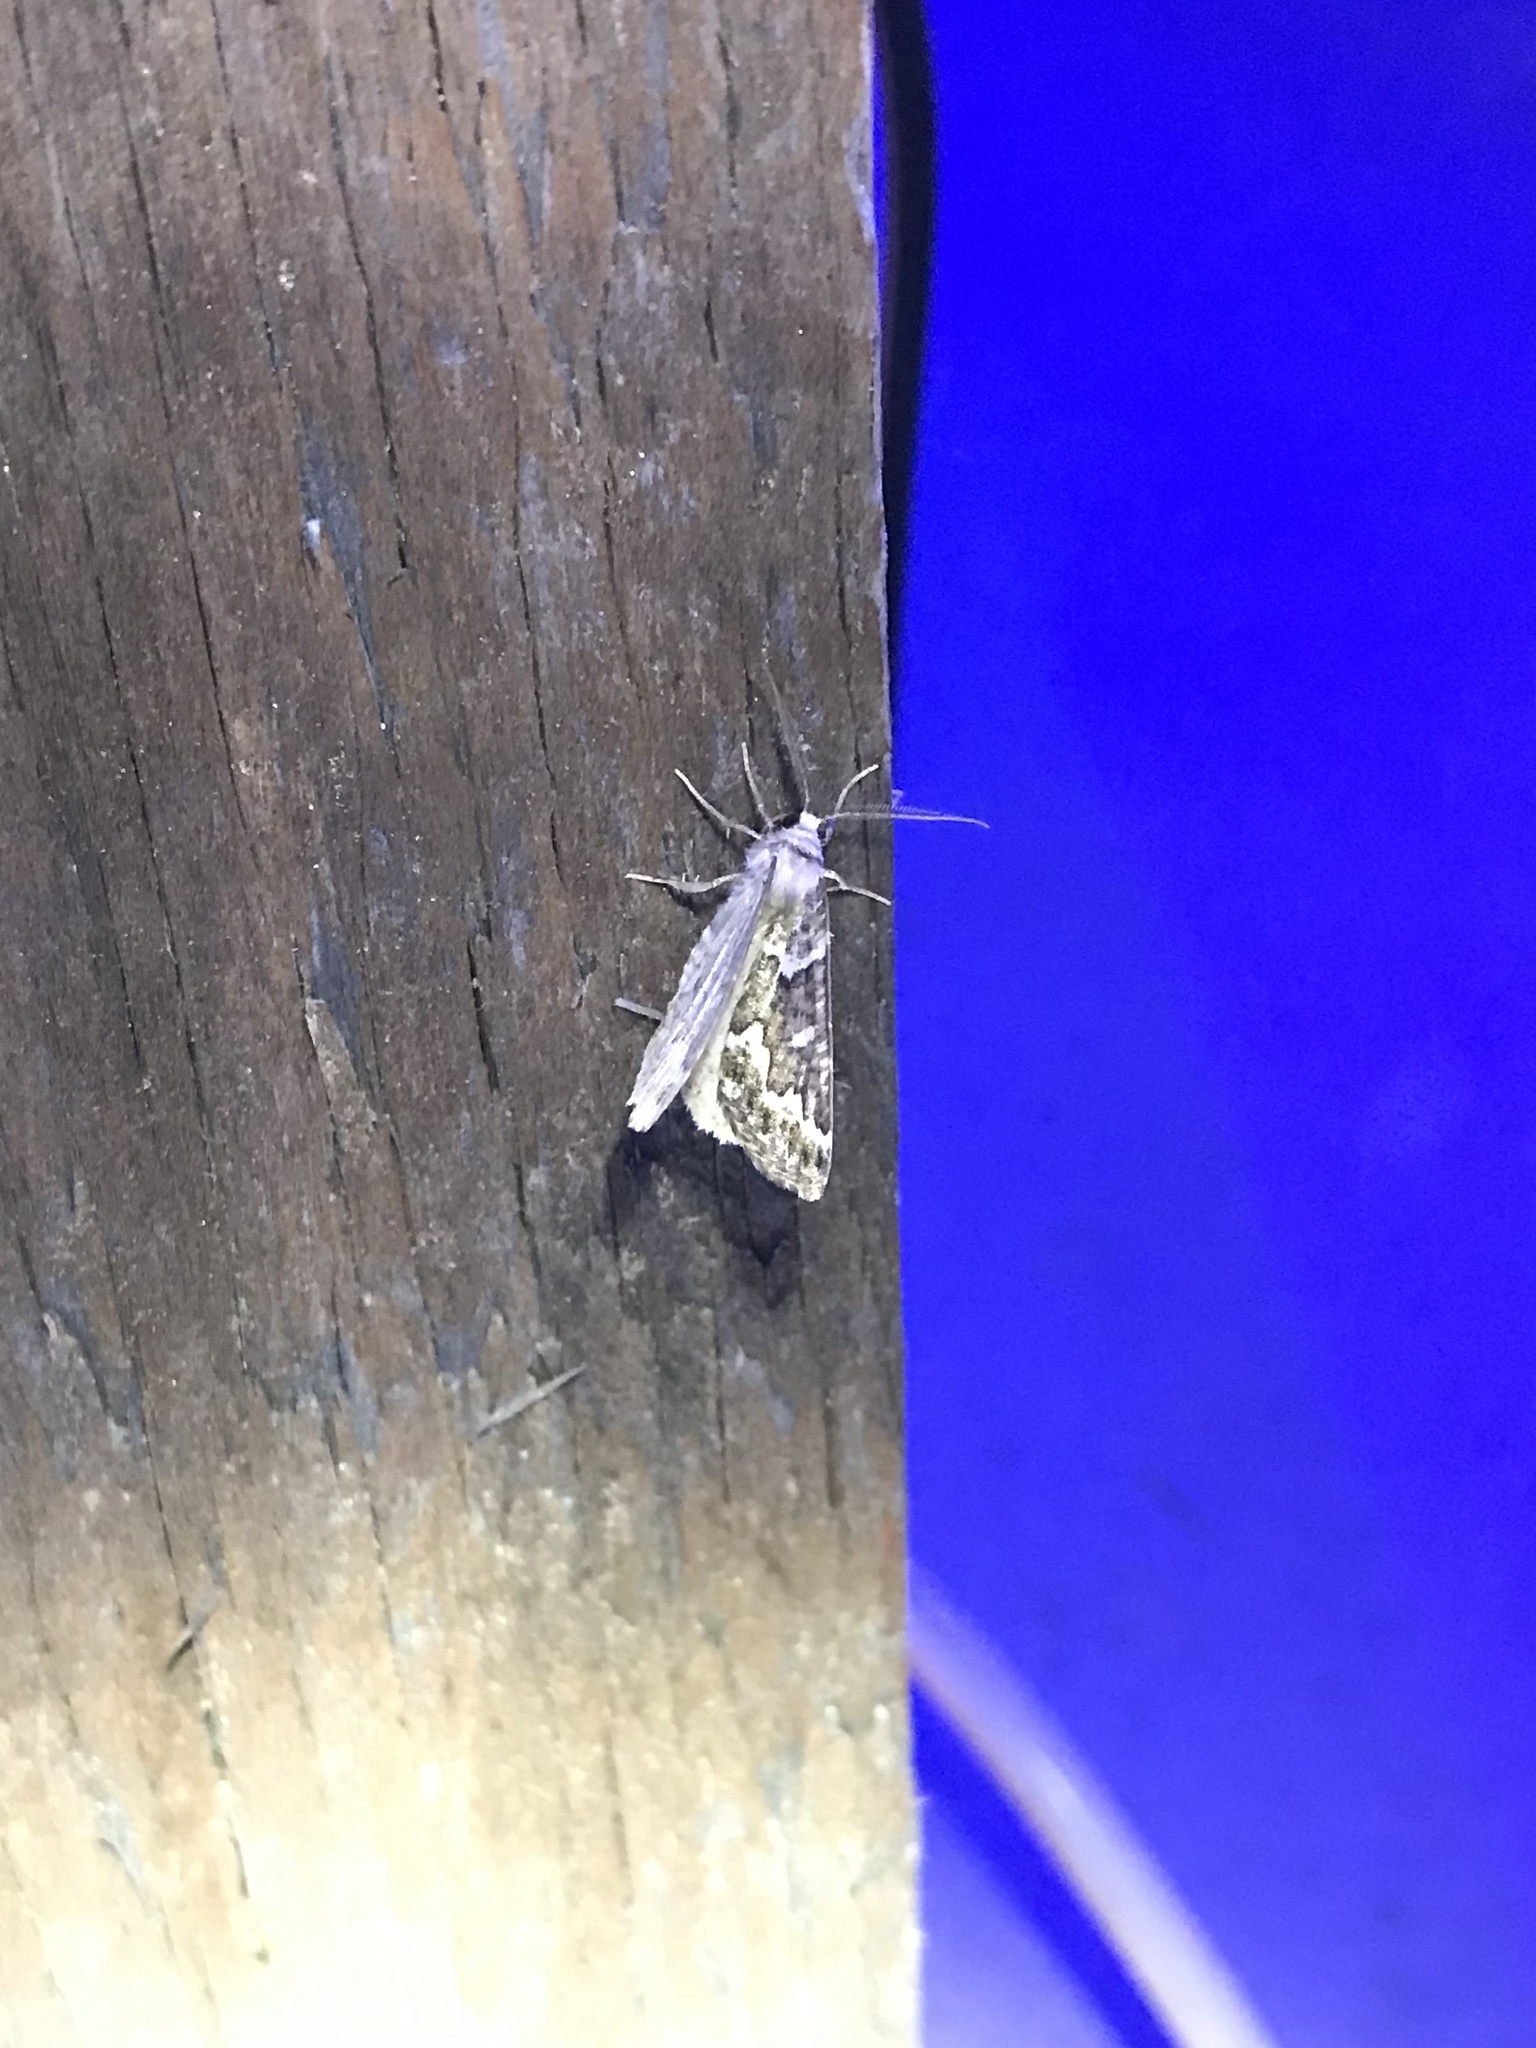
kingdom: Animalia
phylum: Arthropoda
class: Insecta
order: Lepidoptera
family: Geometridae
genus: Caripeta
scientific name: Caripeta divisata
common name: Gray spruce looper
